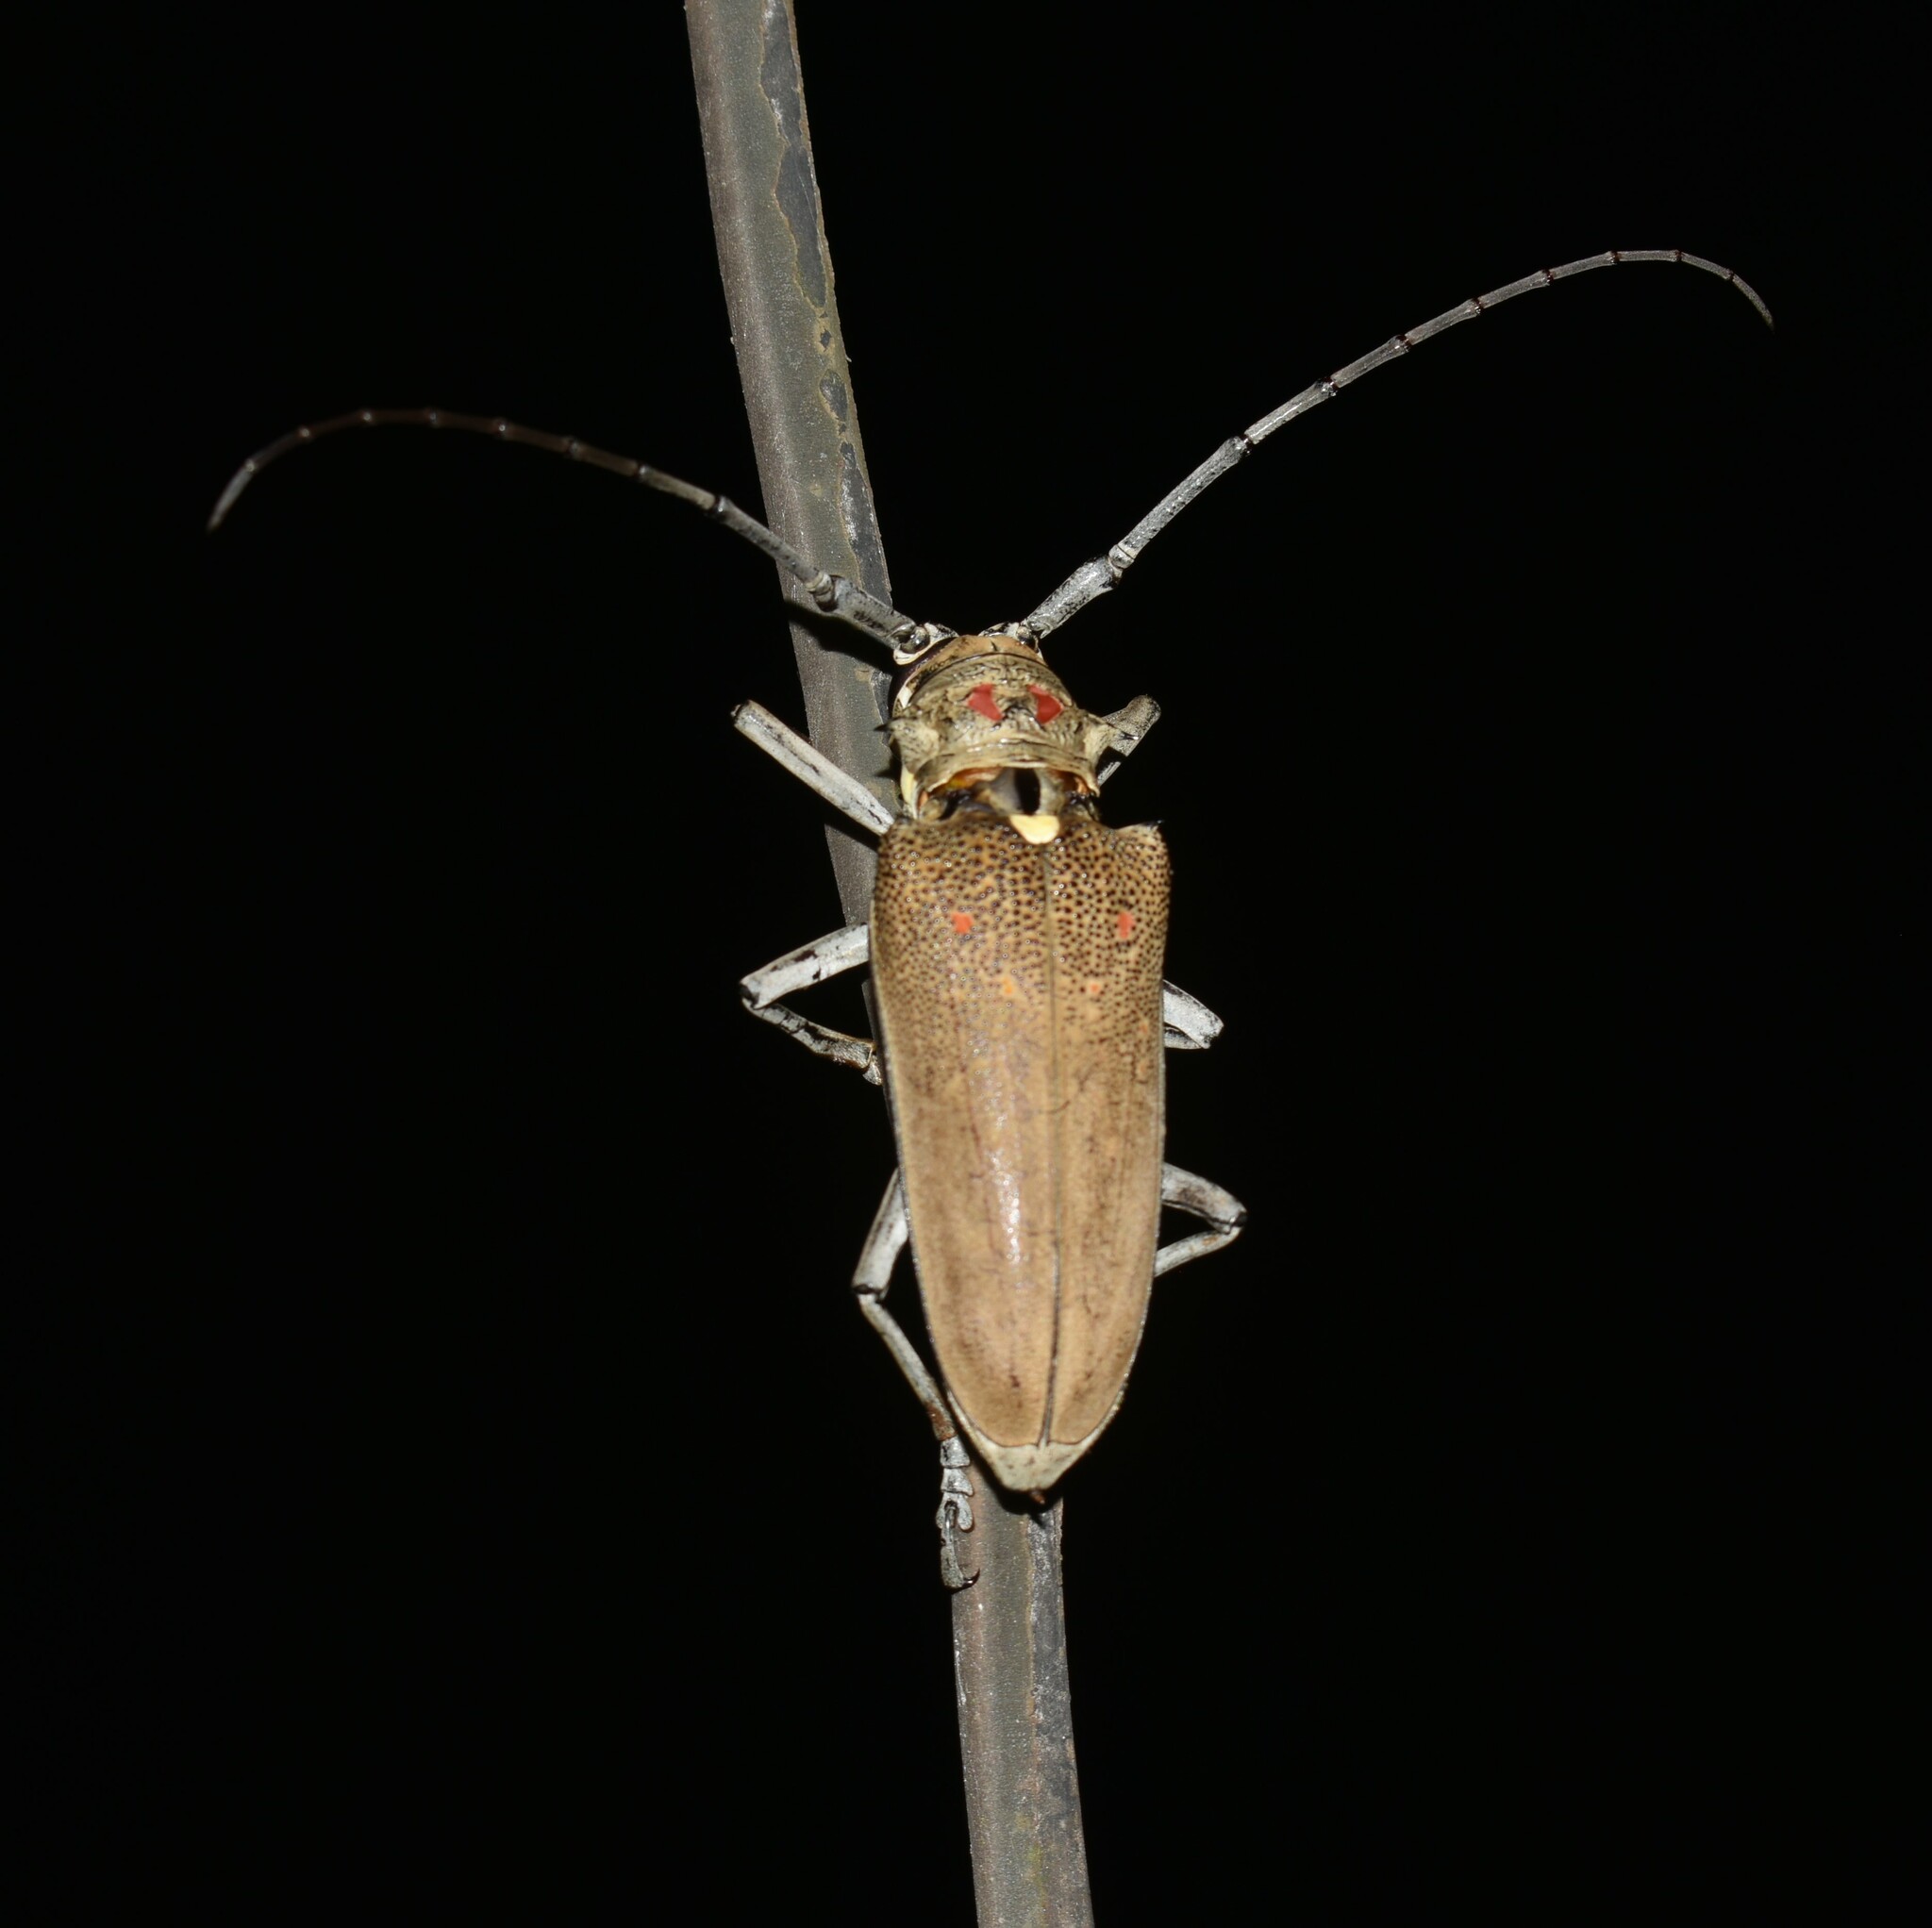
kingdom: Animalia
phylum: Arthropoda
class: Insecta
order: Coleoptera
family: Cerambycidae
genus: Batocera
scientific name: Batocera rufomaculata
